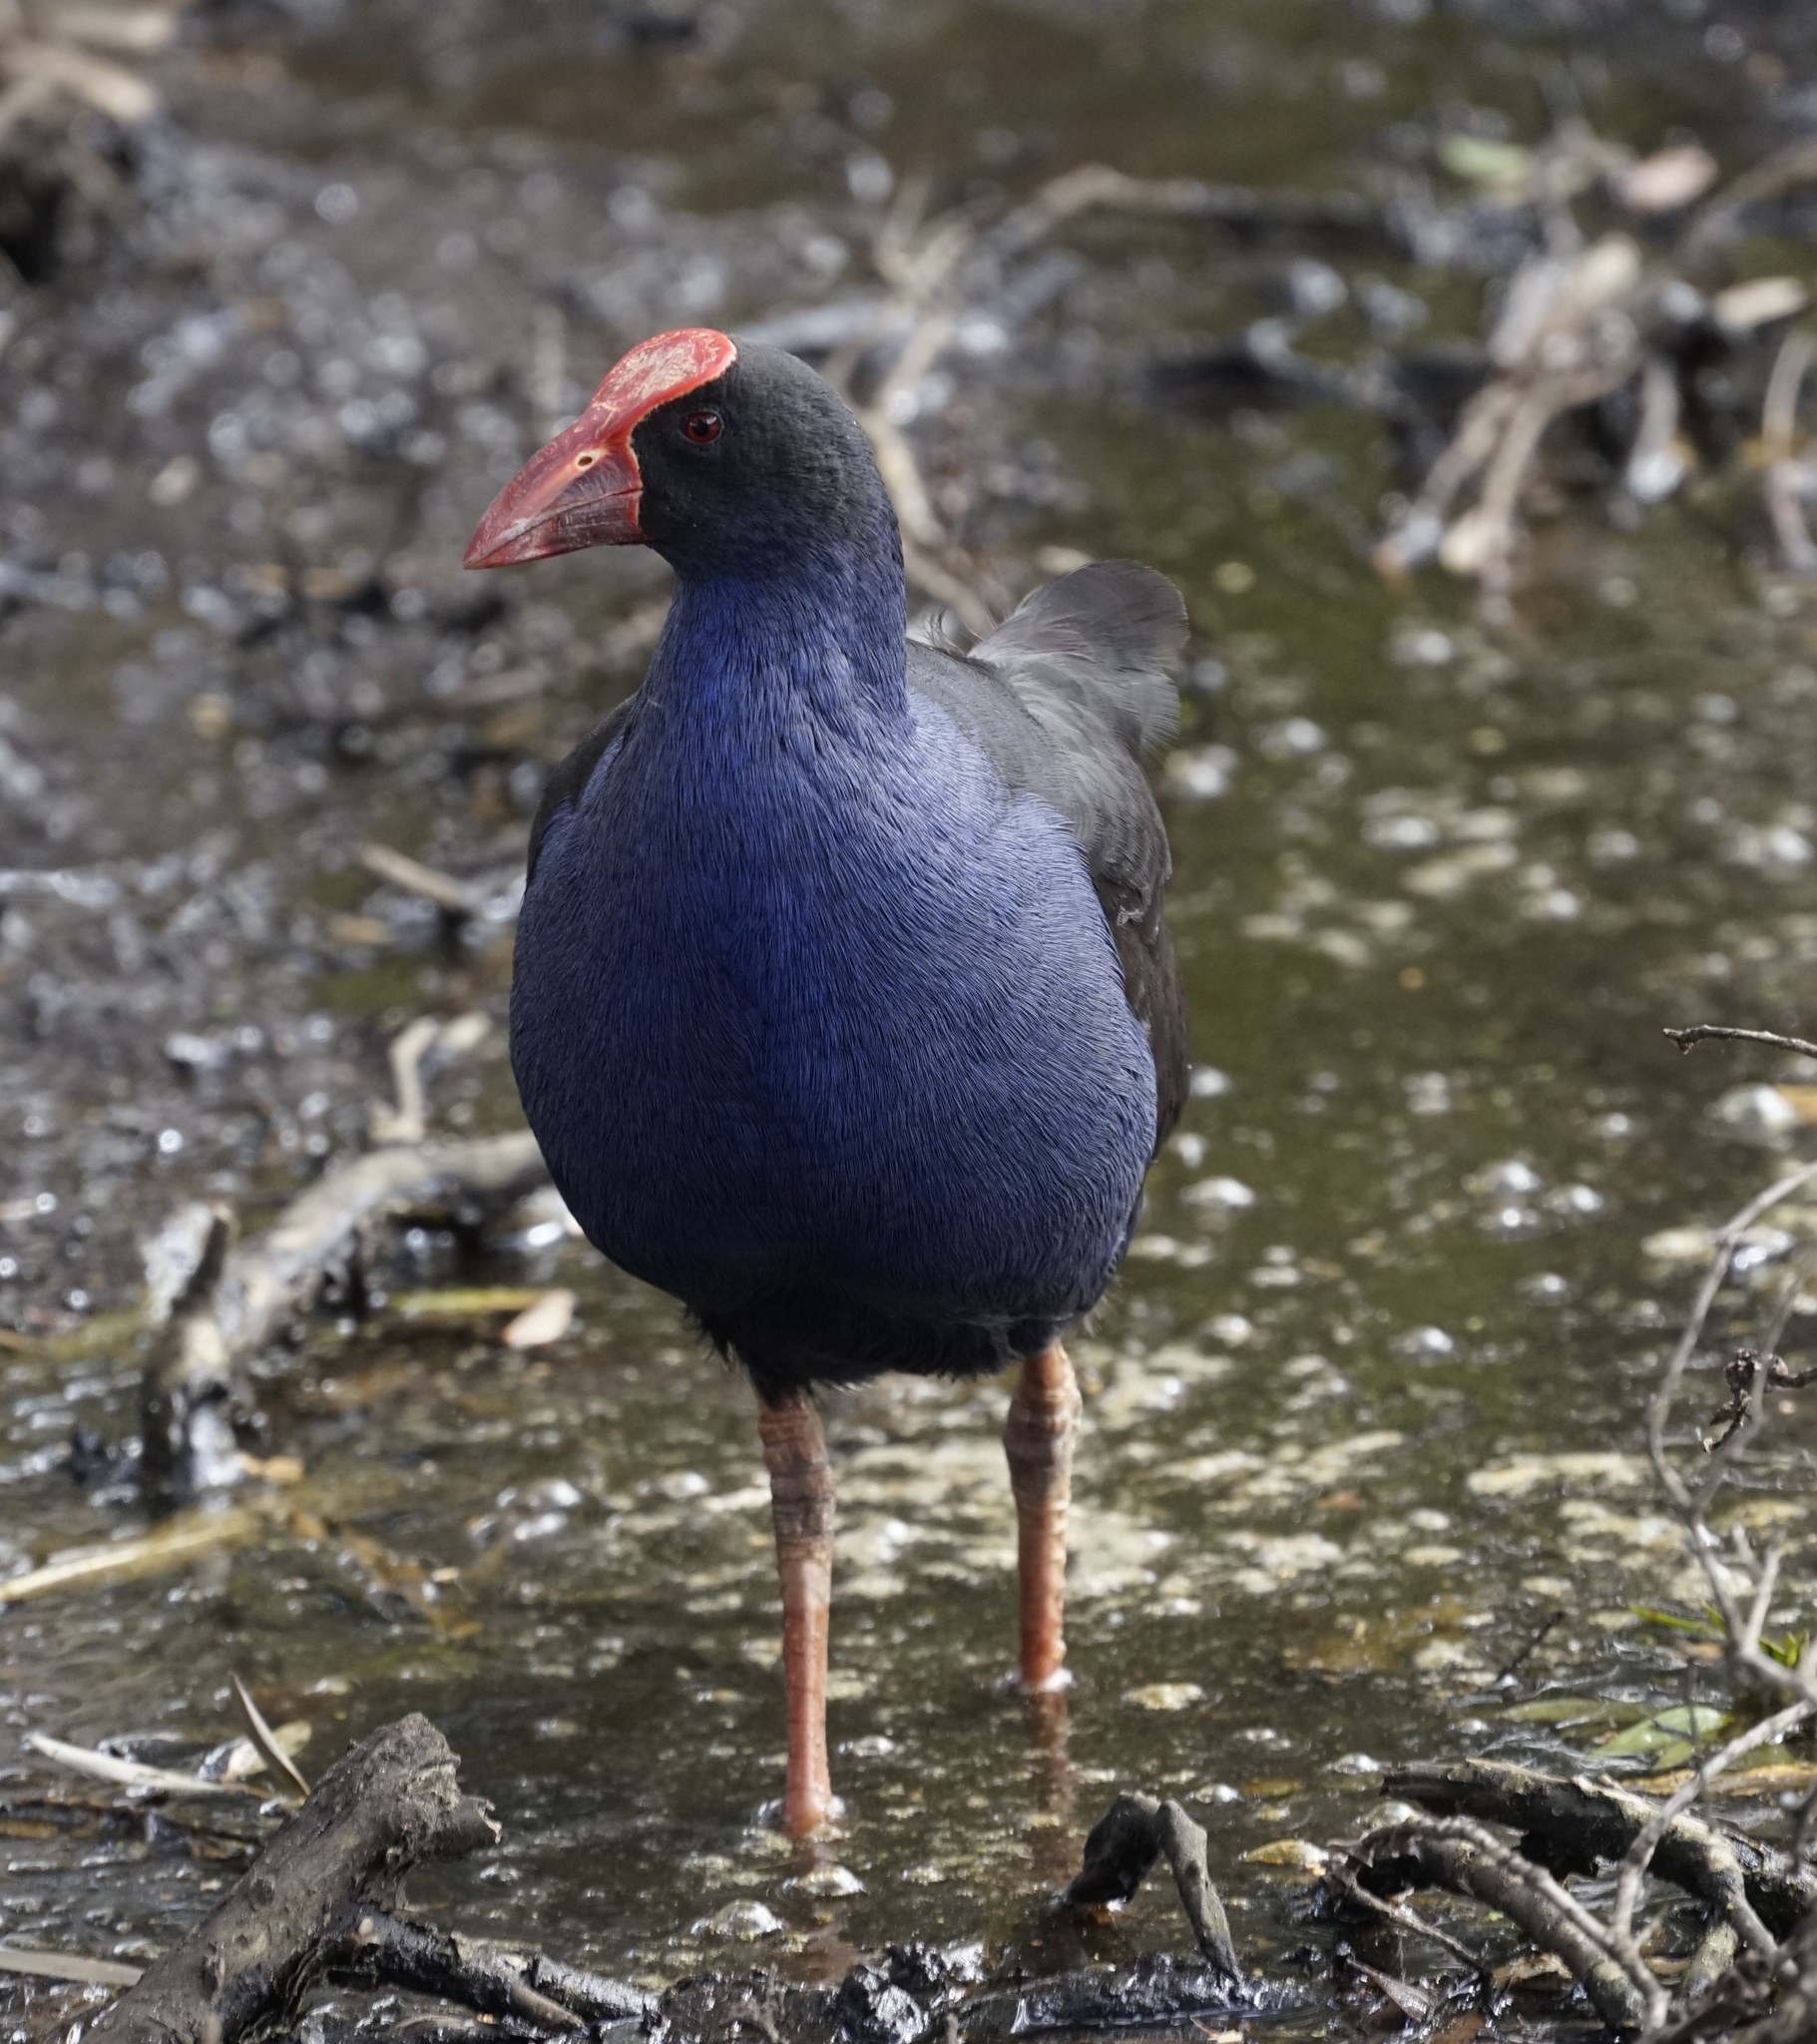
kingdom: Animalia
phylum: Chordata
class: Aves
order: Gruiformes
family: Rallidae
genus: Porphyrio
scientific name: Porphyrio melanotus
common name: Australasian swamphen
